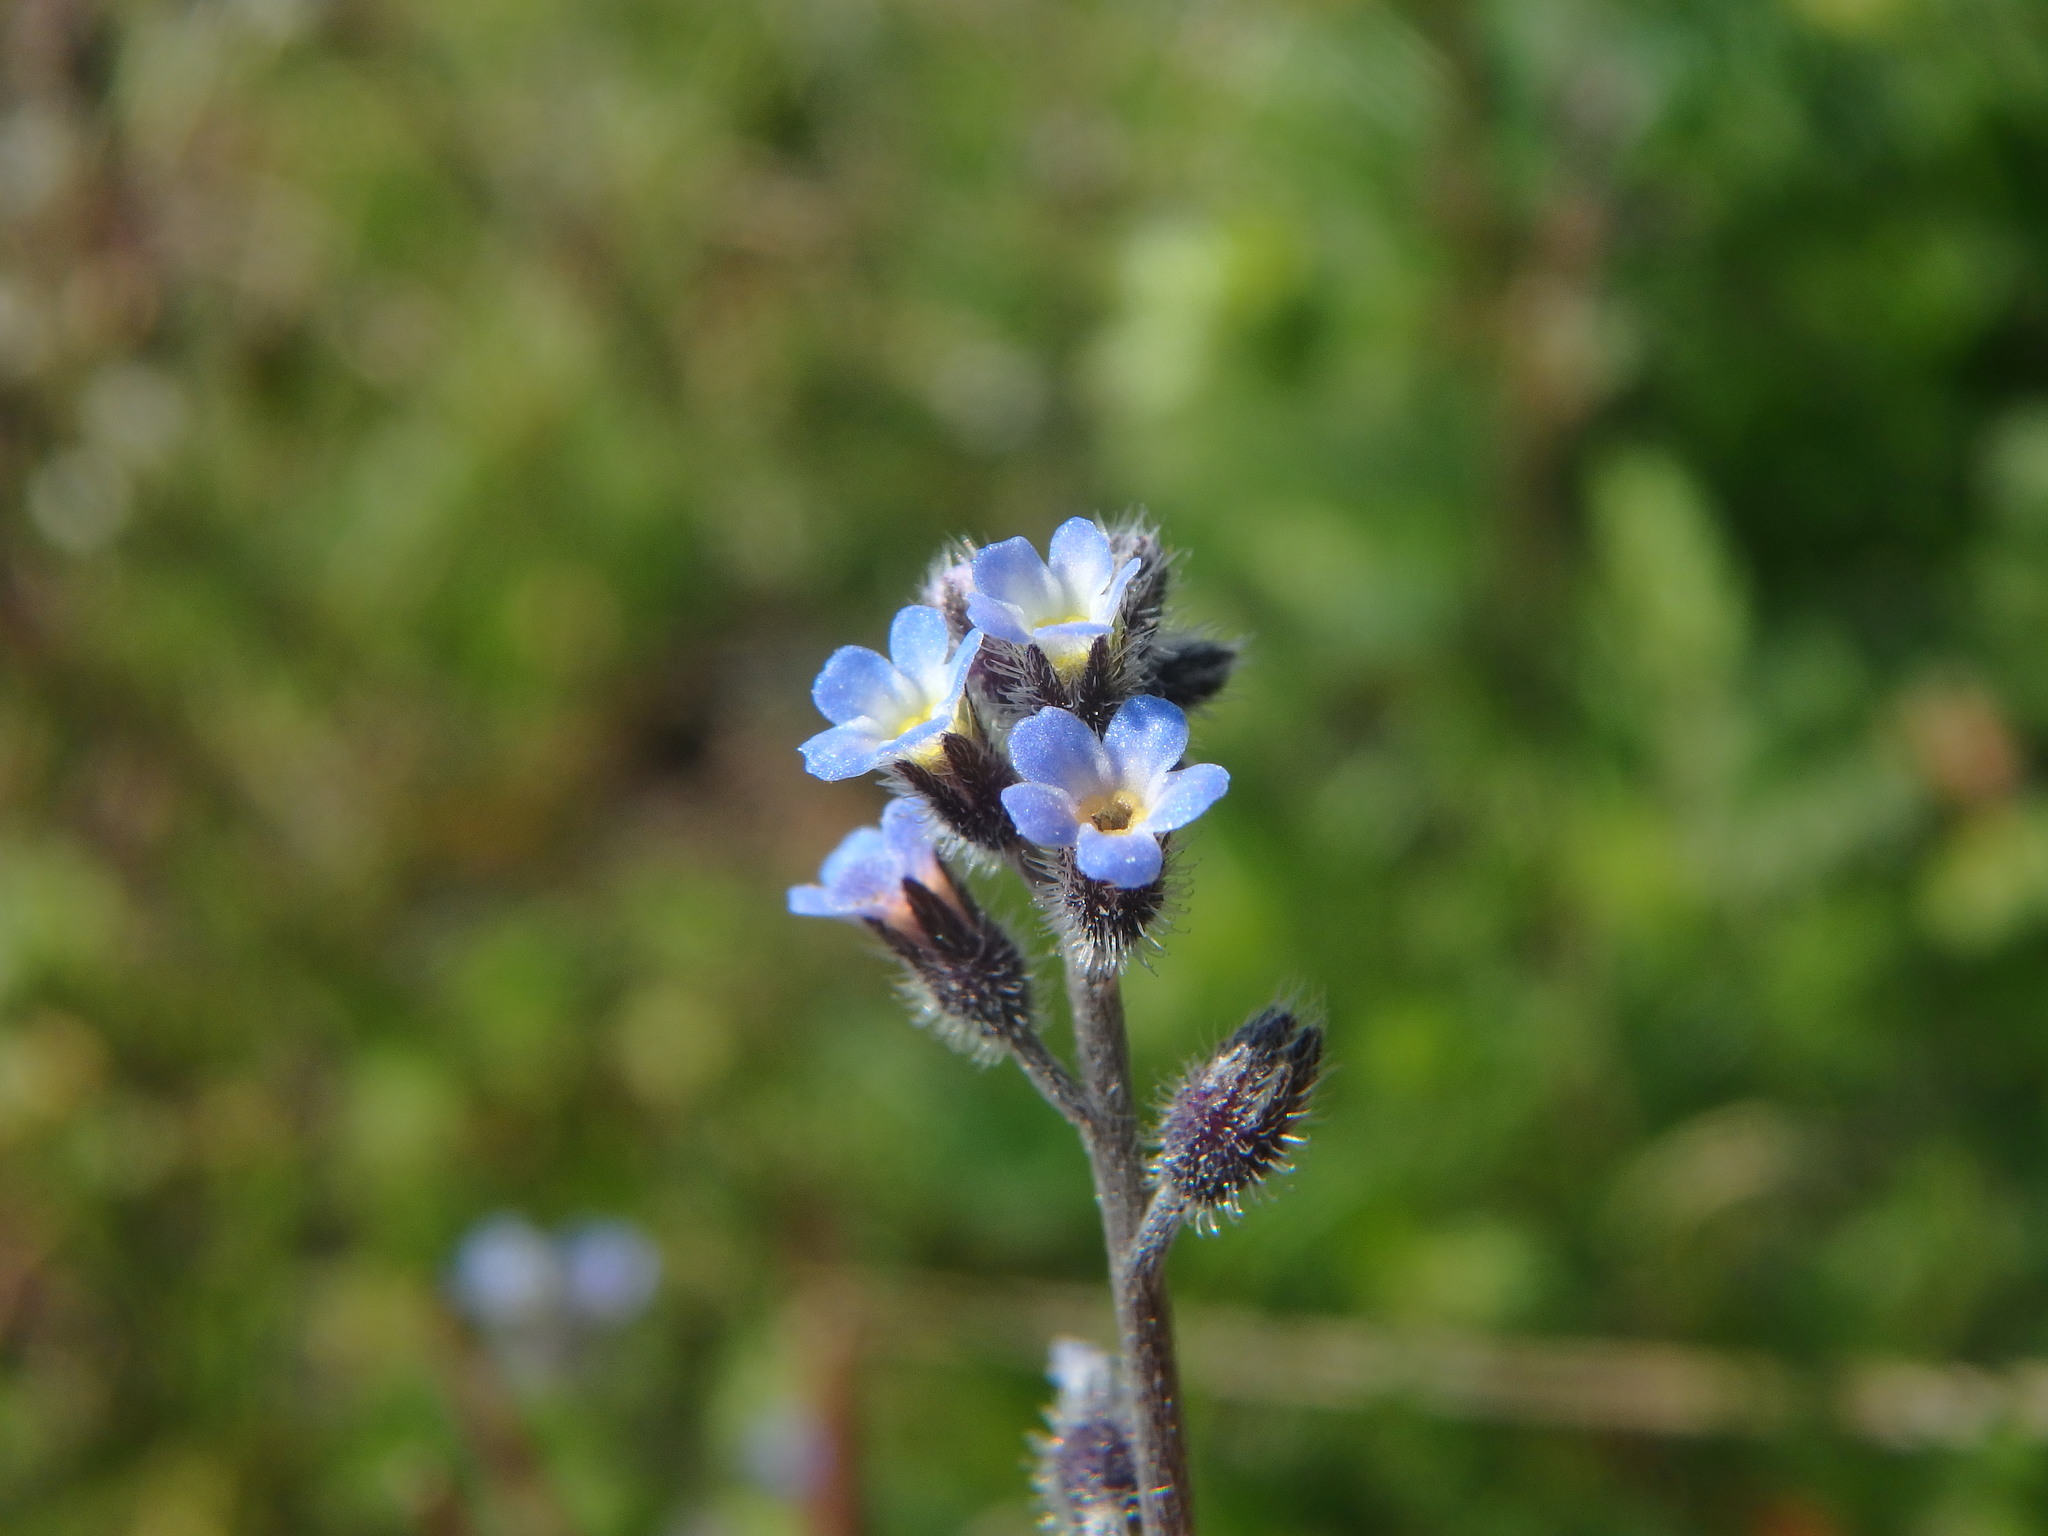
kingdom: Plantae
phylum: Tracheophyta
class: Magnoliopsida
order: Boraginales
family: Boraginaceae
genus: Myosotis
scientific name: Myosotis ramosissima
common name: Early forget-me-not
